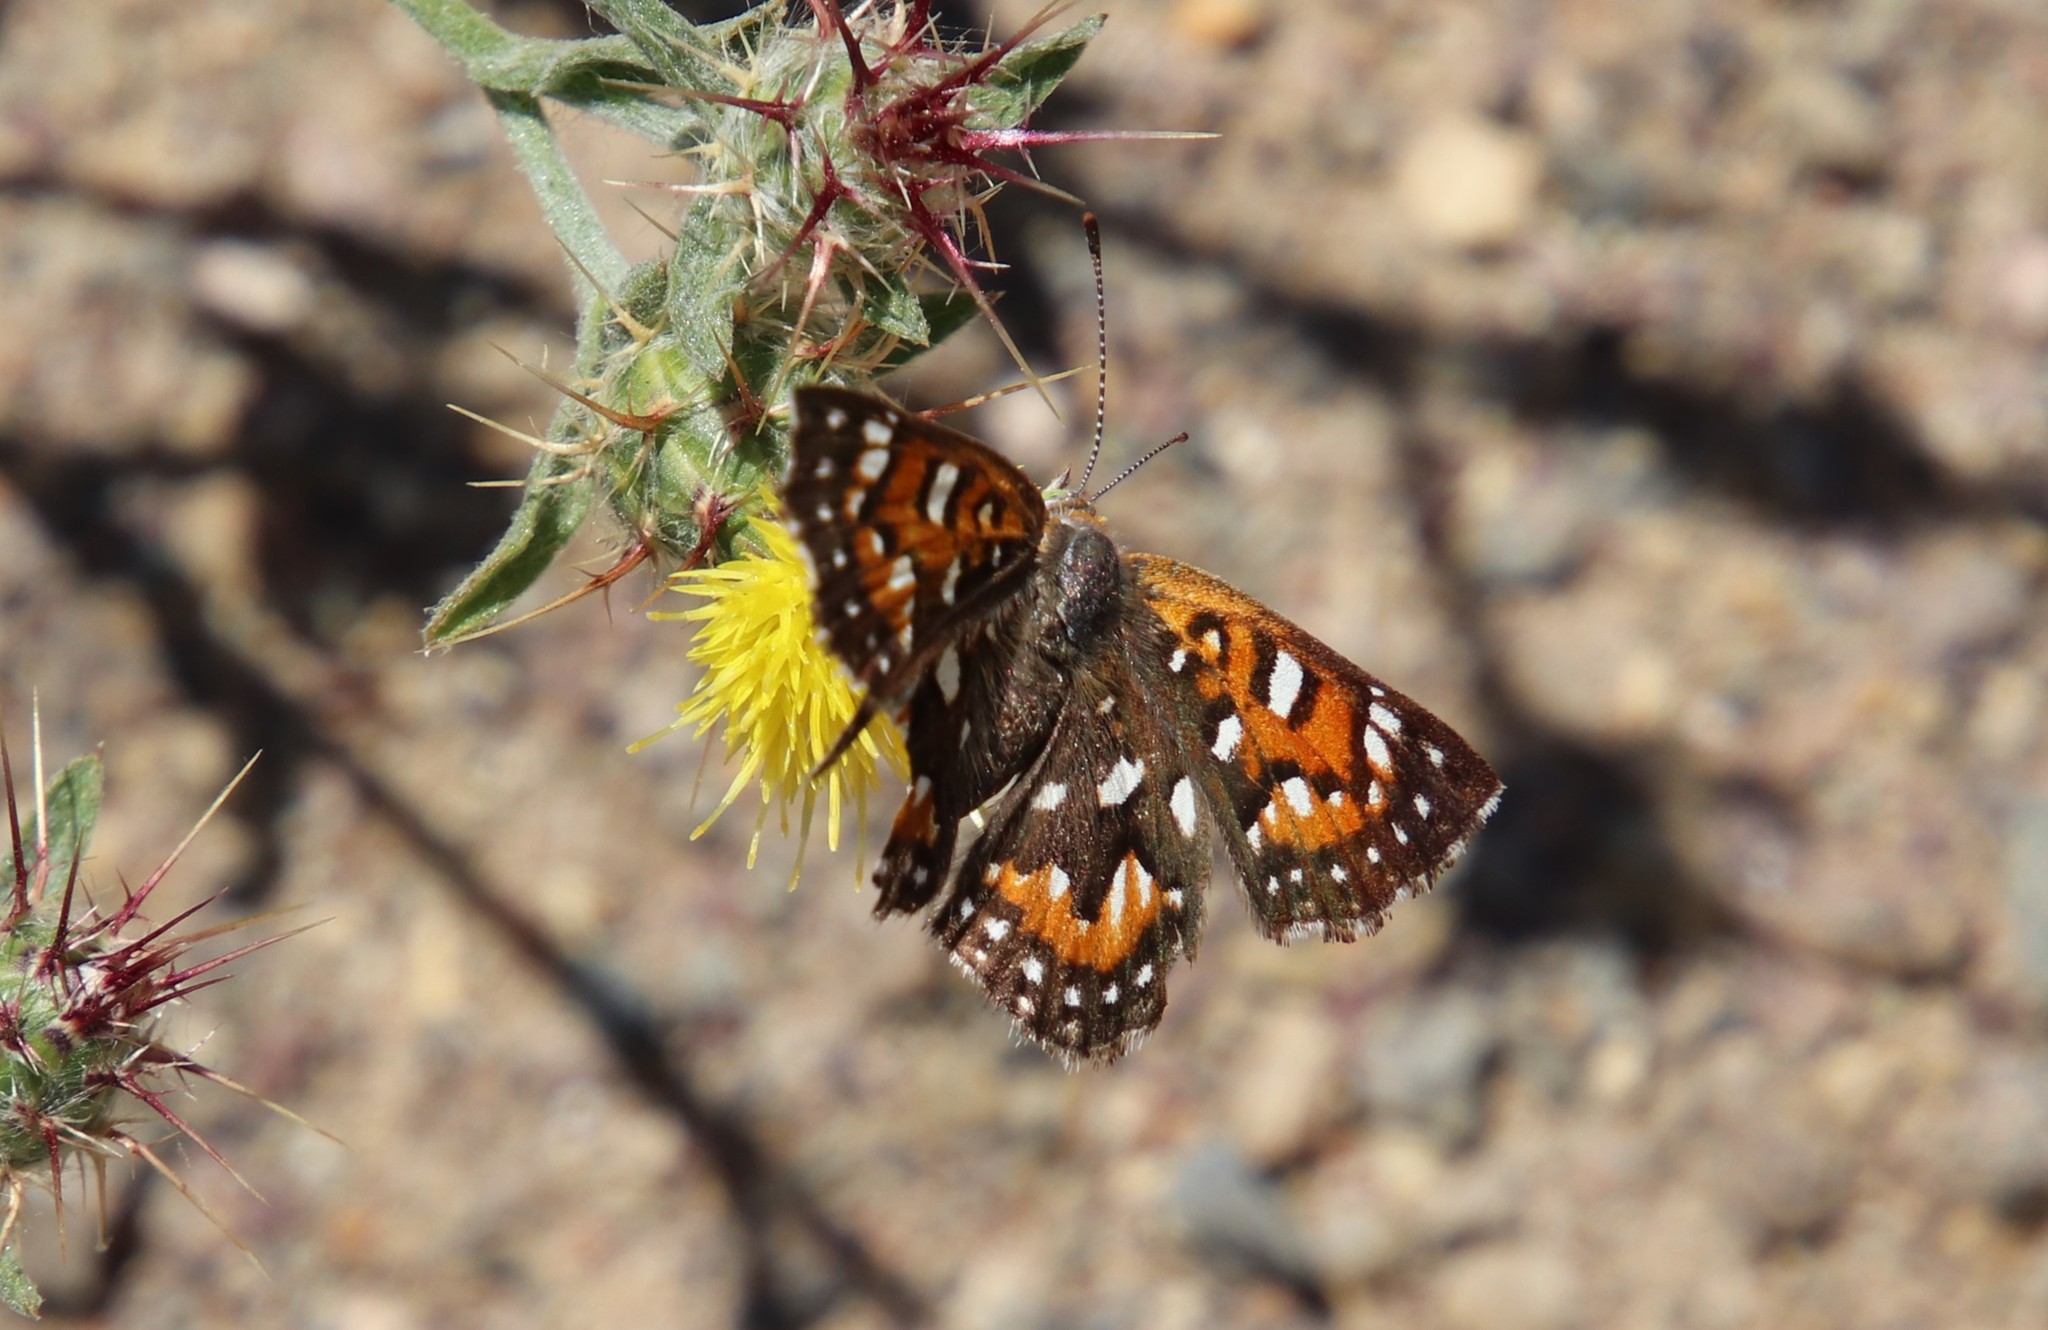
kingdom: Animalia
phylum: Arthropoda
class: Insecta
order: Lepidoptera
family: Riodinidae
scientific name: Riodinidae
